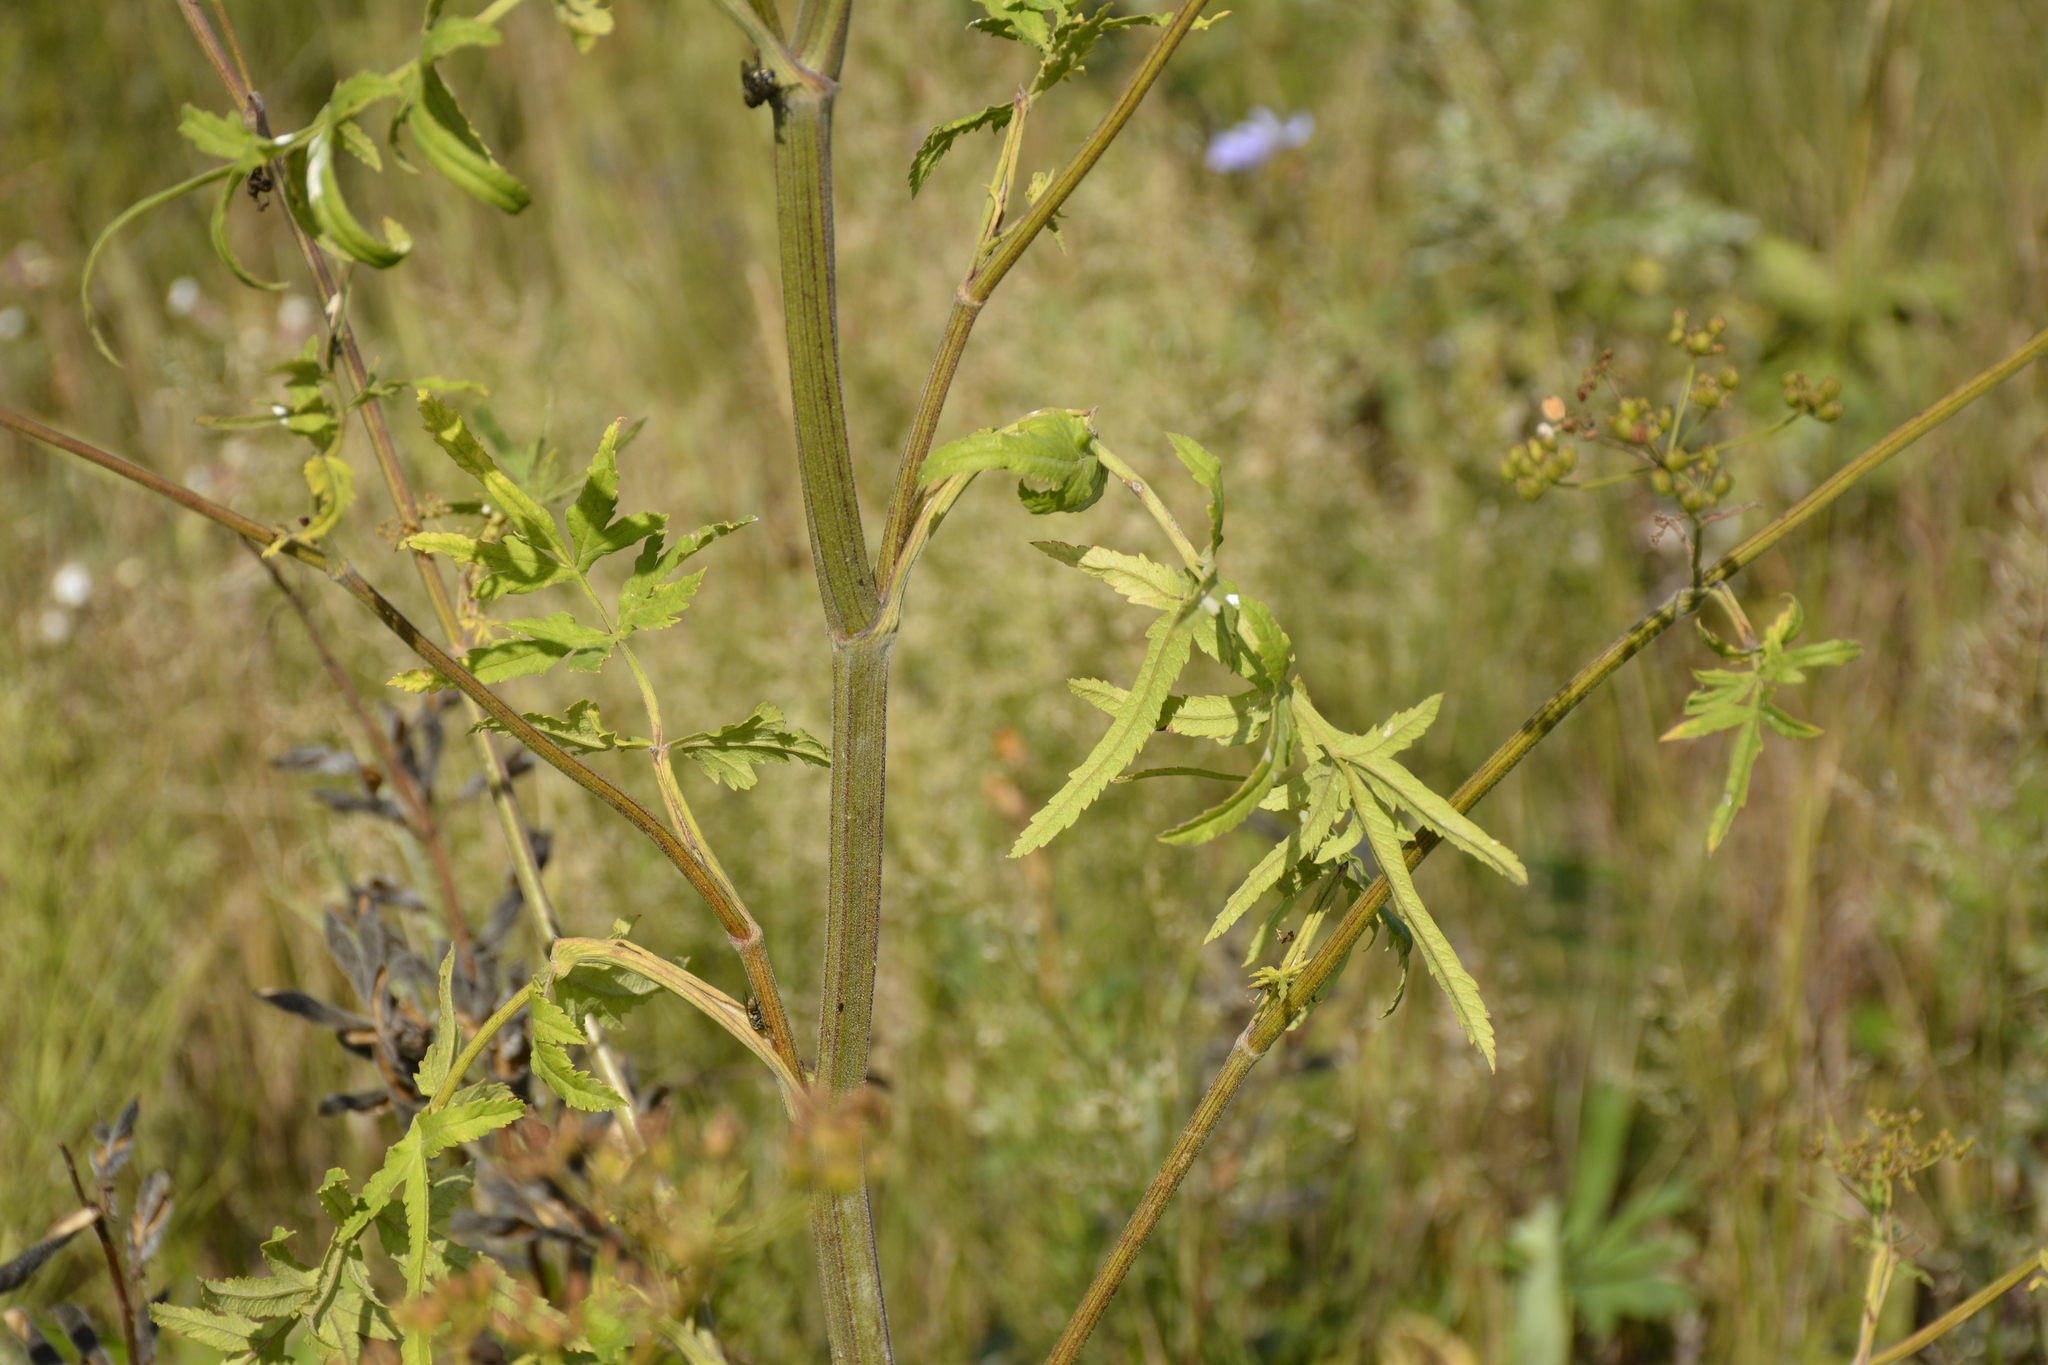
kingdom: Plantae
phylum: Tracheophyta
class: Magnoliopsida
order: Apiales
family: Apiaceae
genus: Pastinaca
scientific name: Pastinaca sativa
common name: Wild parsnip
